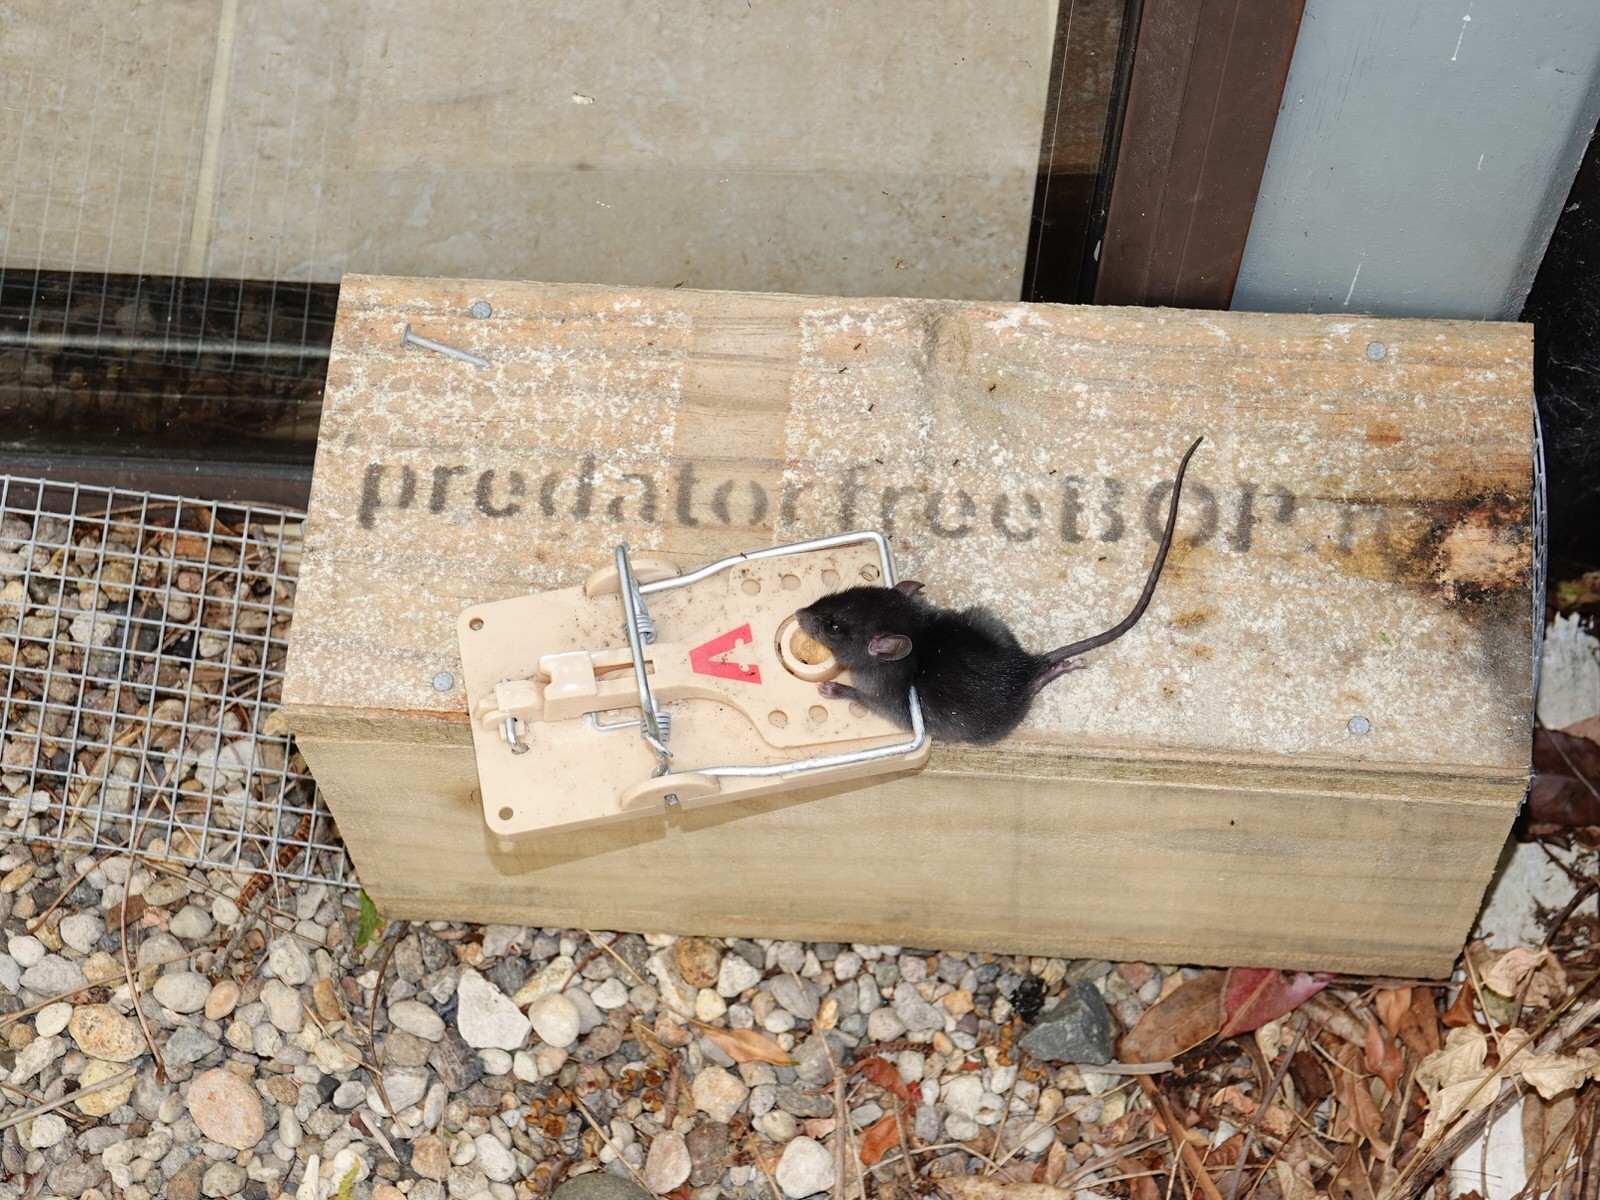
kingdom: Animalia
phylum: Chordata
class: Mammalia
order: Rodentia
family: Muridae
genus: Rattus
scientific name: Rattus rattus
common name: Black rat
